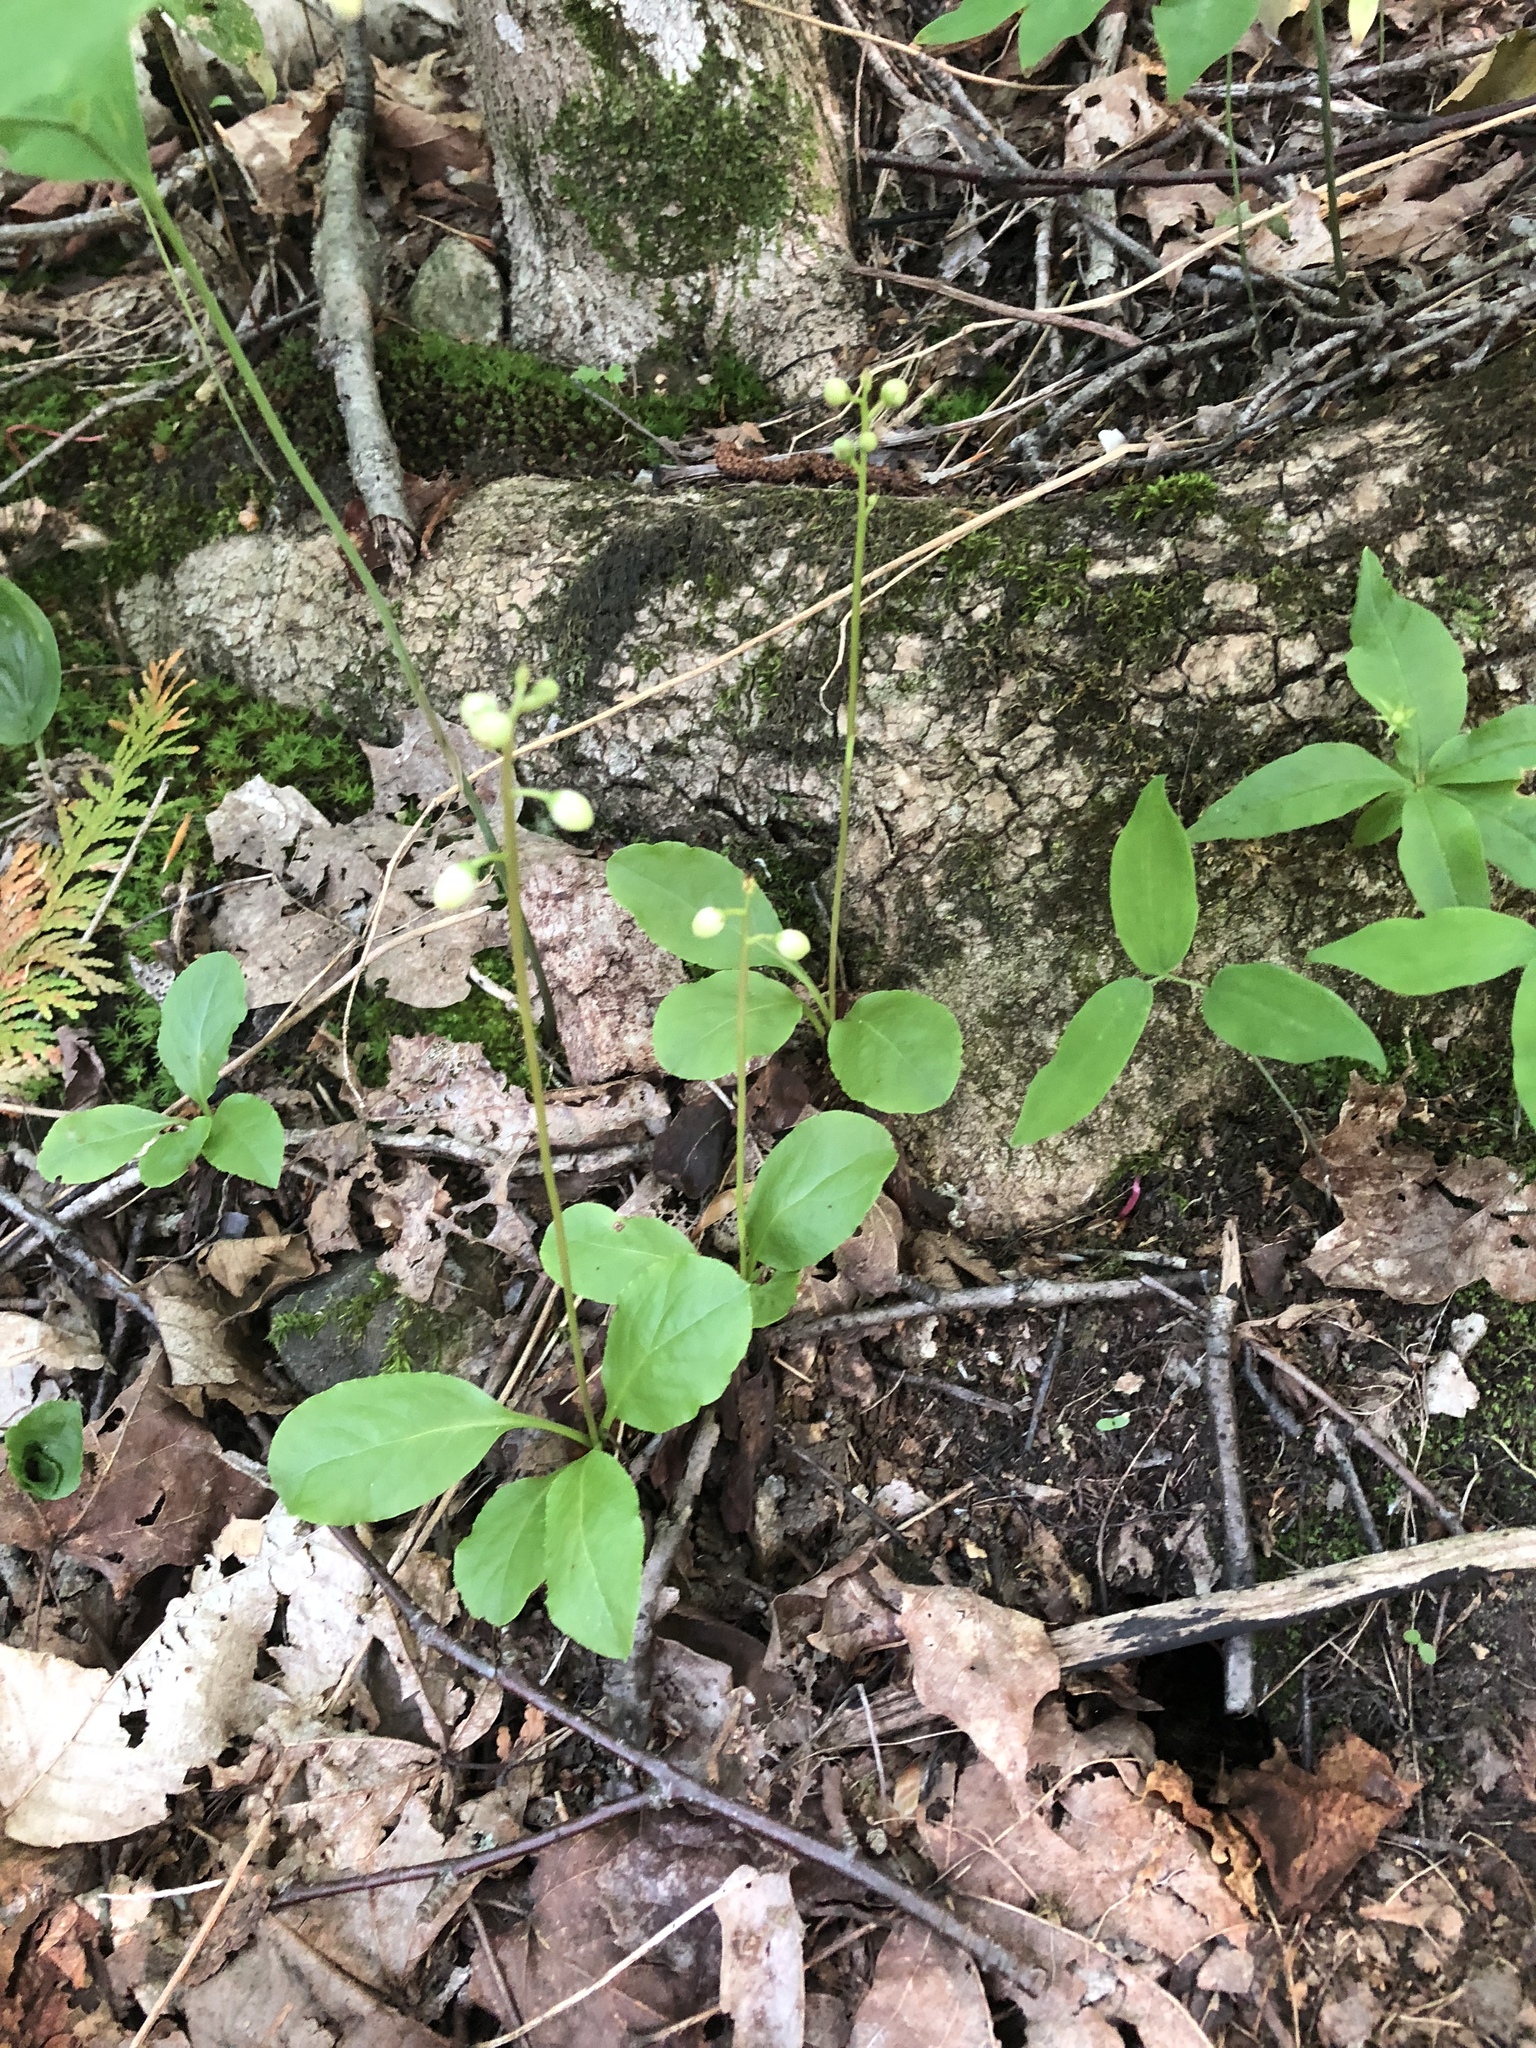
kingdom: Plantae
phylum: Tracheophyta
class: Magnoliopsida
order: Ericales
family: Ericaceae
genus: Pyrola
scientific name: Pyrola elliptica
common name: Shinleaf
